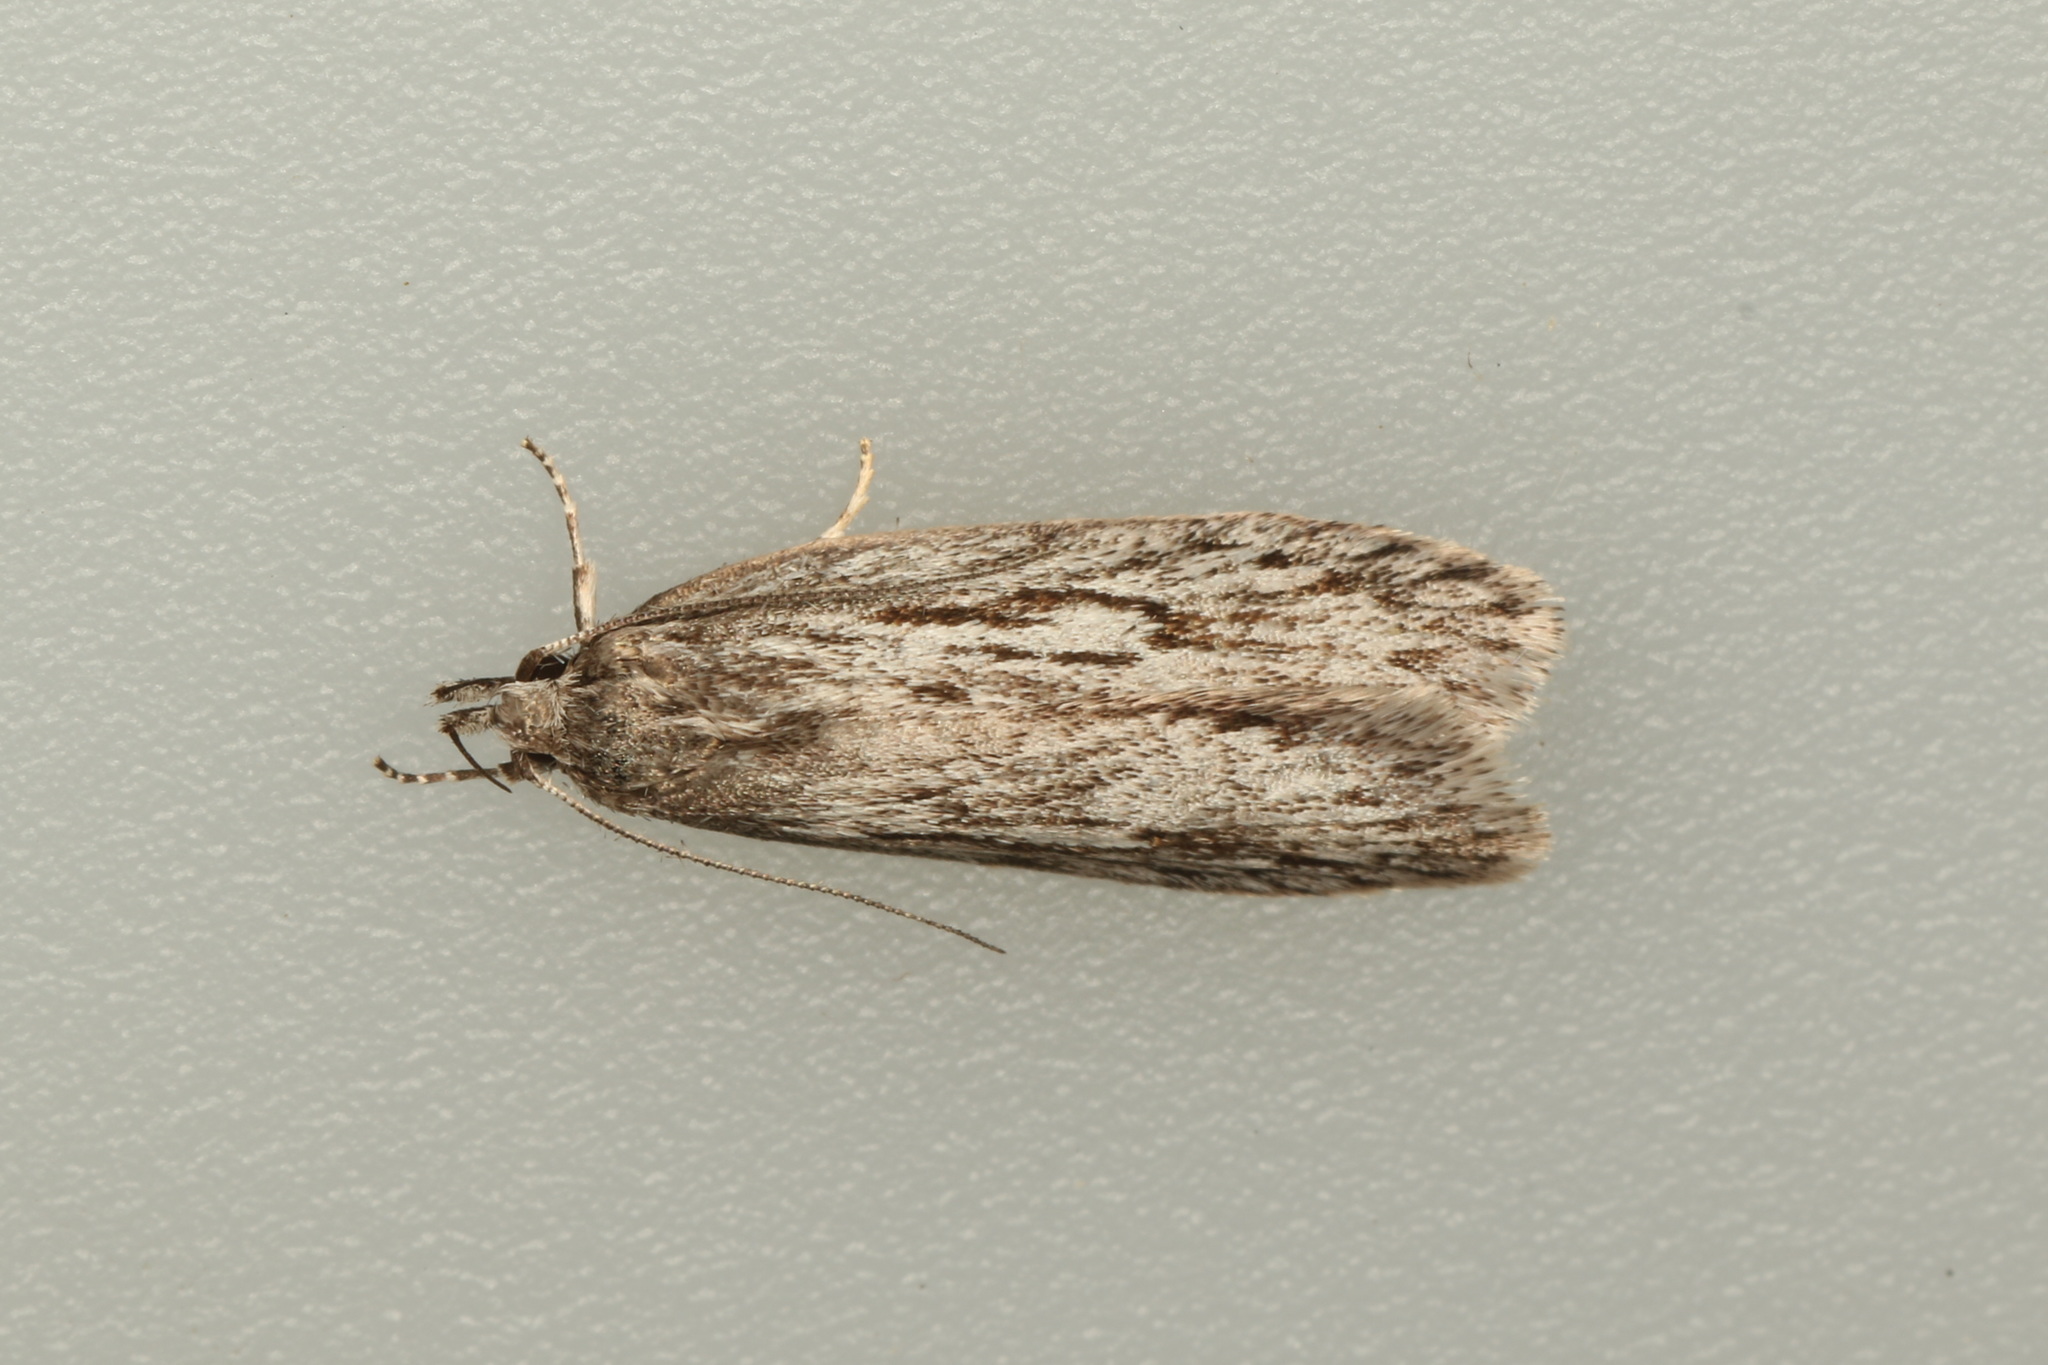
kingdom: Animalia
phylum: Arthropoda
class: Insecta
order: Lepidoptera
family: Oecophoridae
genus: Anomozancla
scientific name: Anomozancla scopariella
